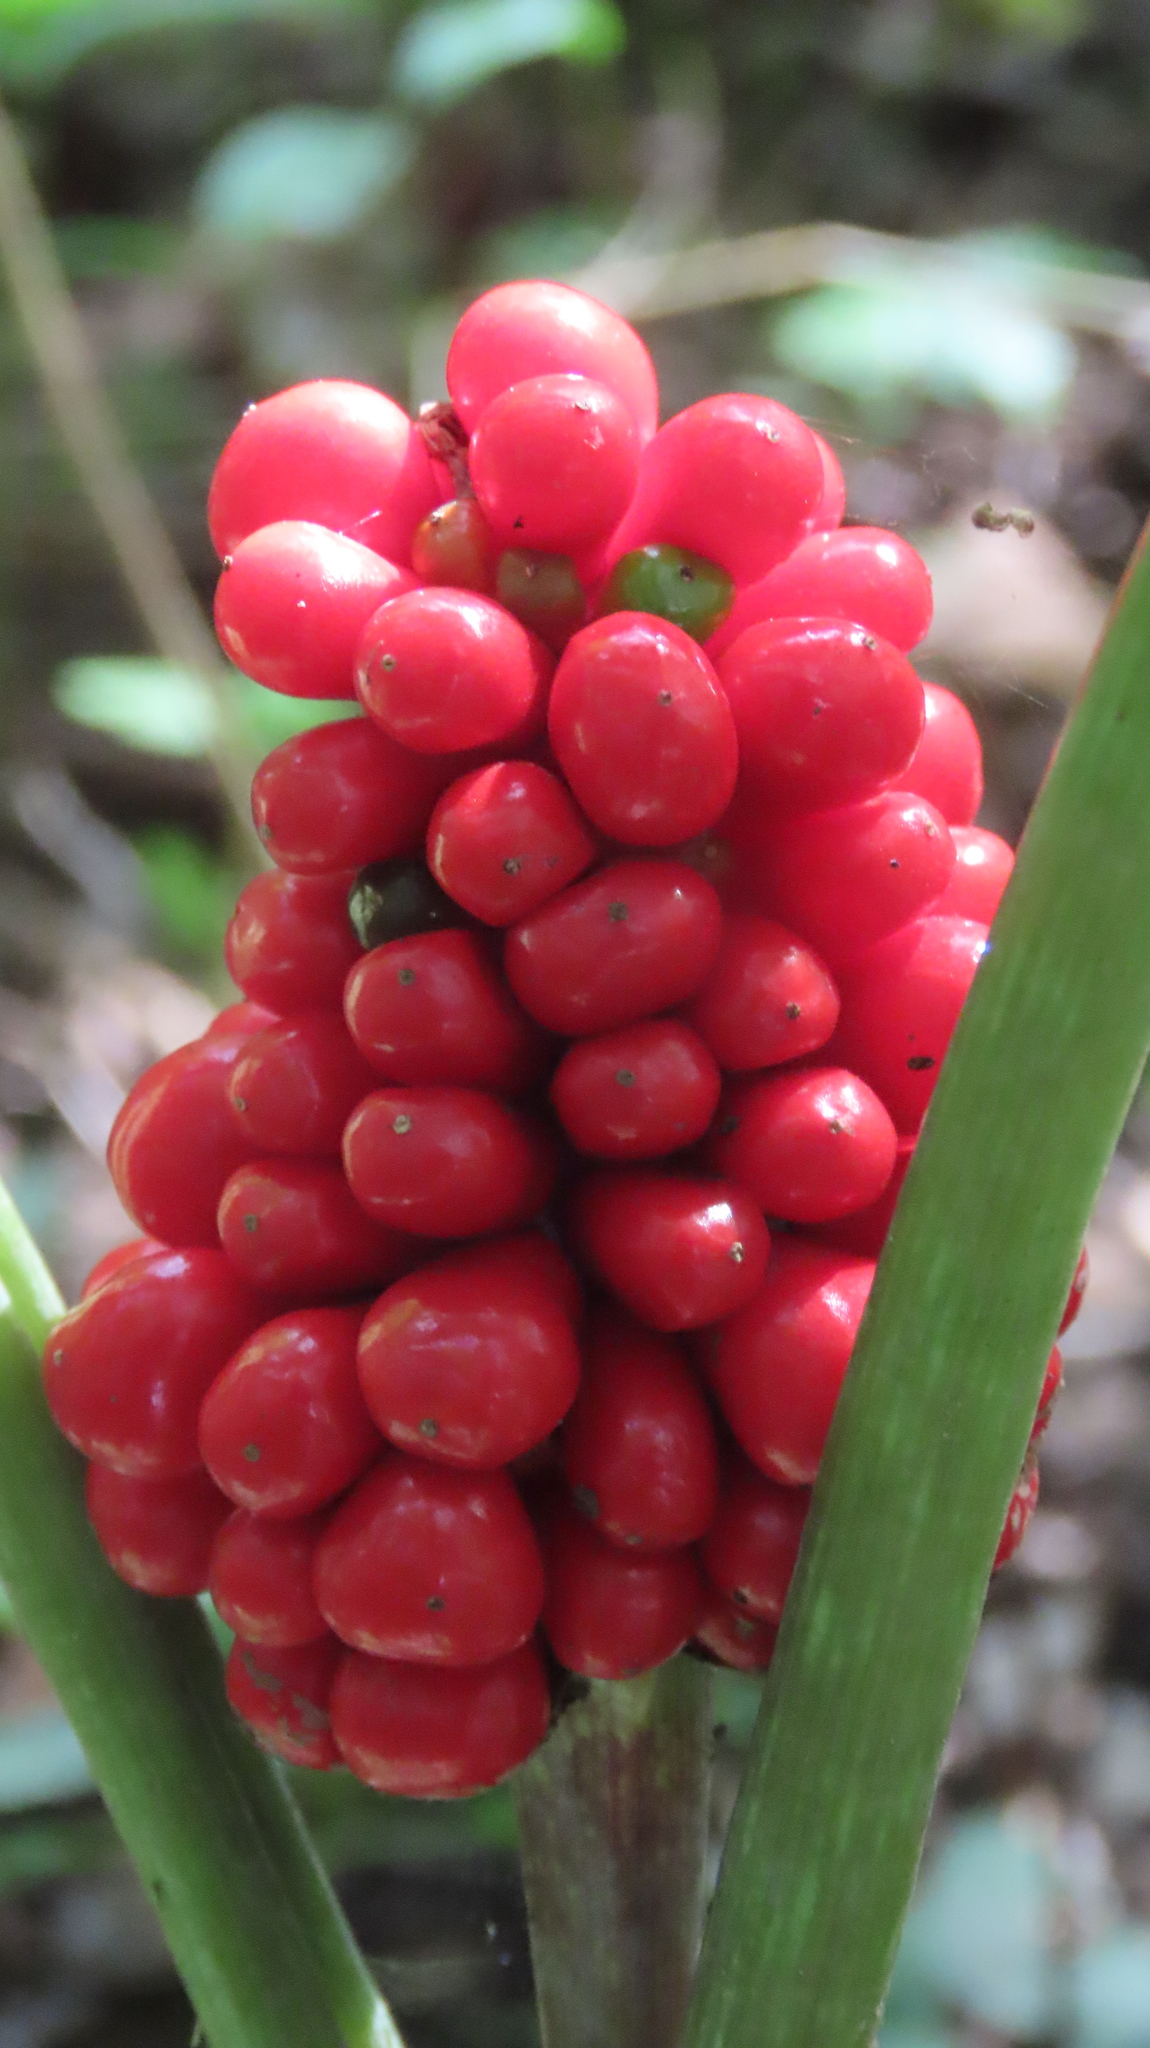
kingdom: Plantae
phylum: Tracheophyta
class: Liliopsida
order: Alismatales
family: Araceae
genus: Arisaema
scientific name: Arisaema triphyllum
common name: Jack-in-the-pulpit
